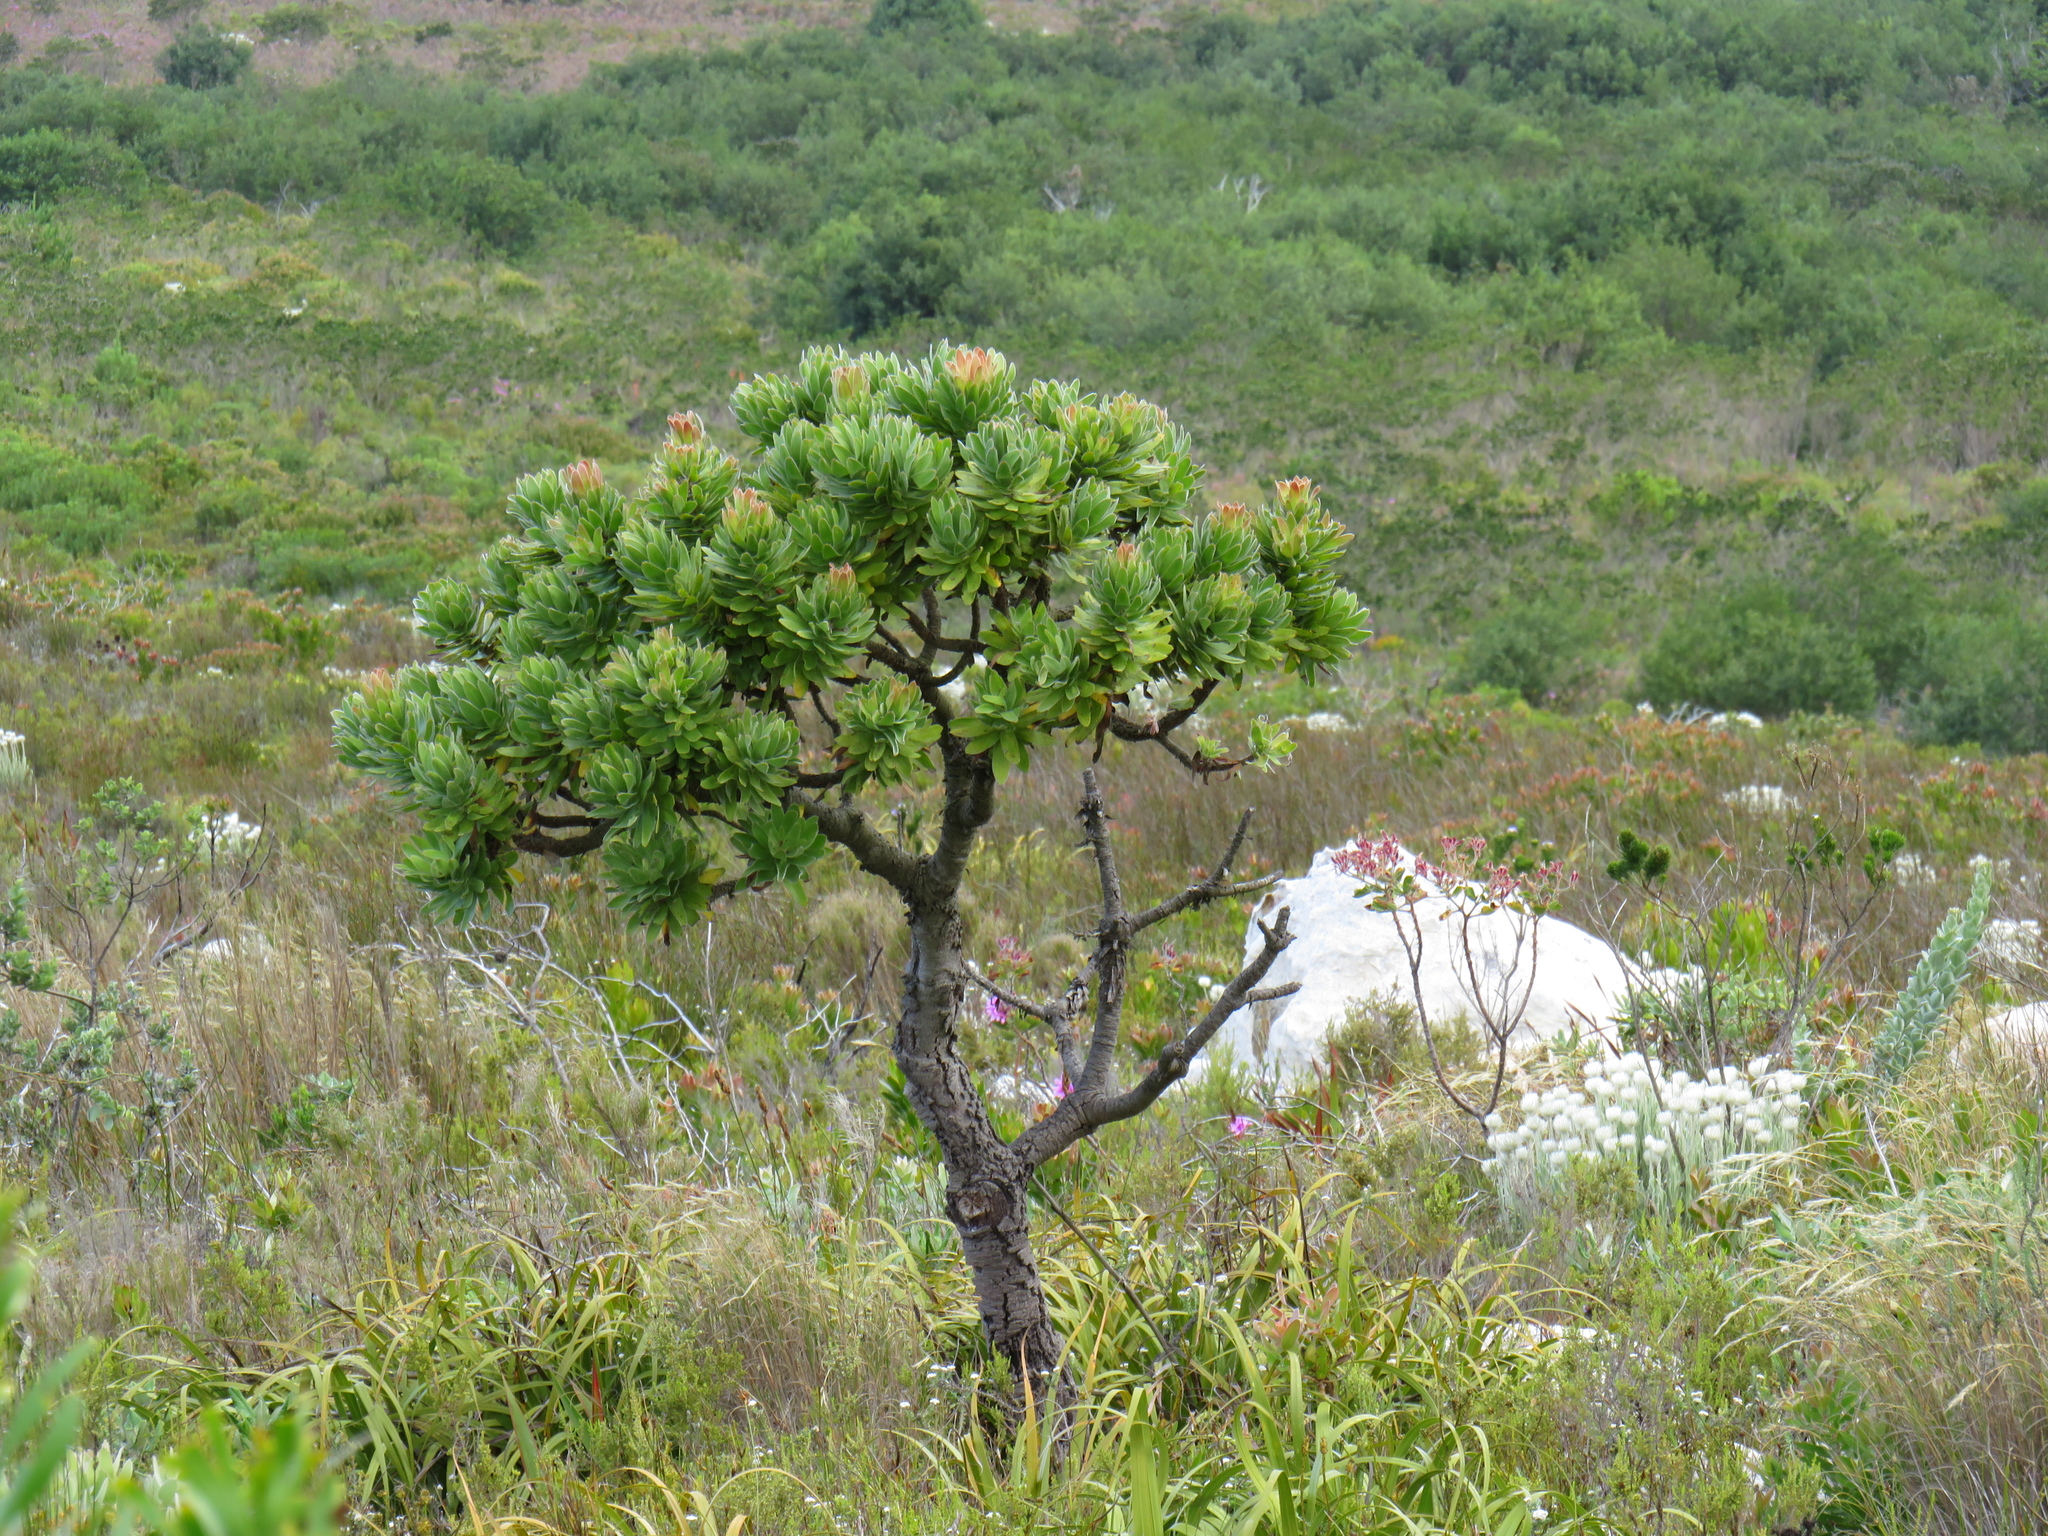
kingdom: Plantae
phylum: Tracheophyta
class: Magnoliopsida
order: Proteales
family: Proteaceae
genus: Mimetes
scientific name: Mimetes fimbriifolius
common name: Fringed bottlebrush
